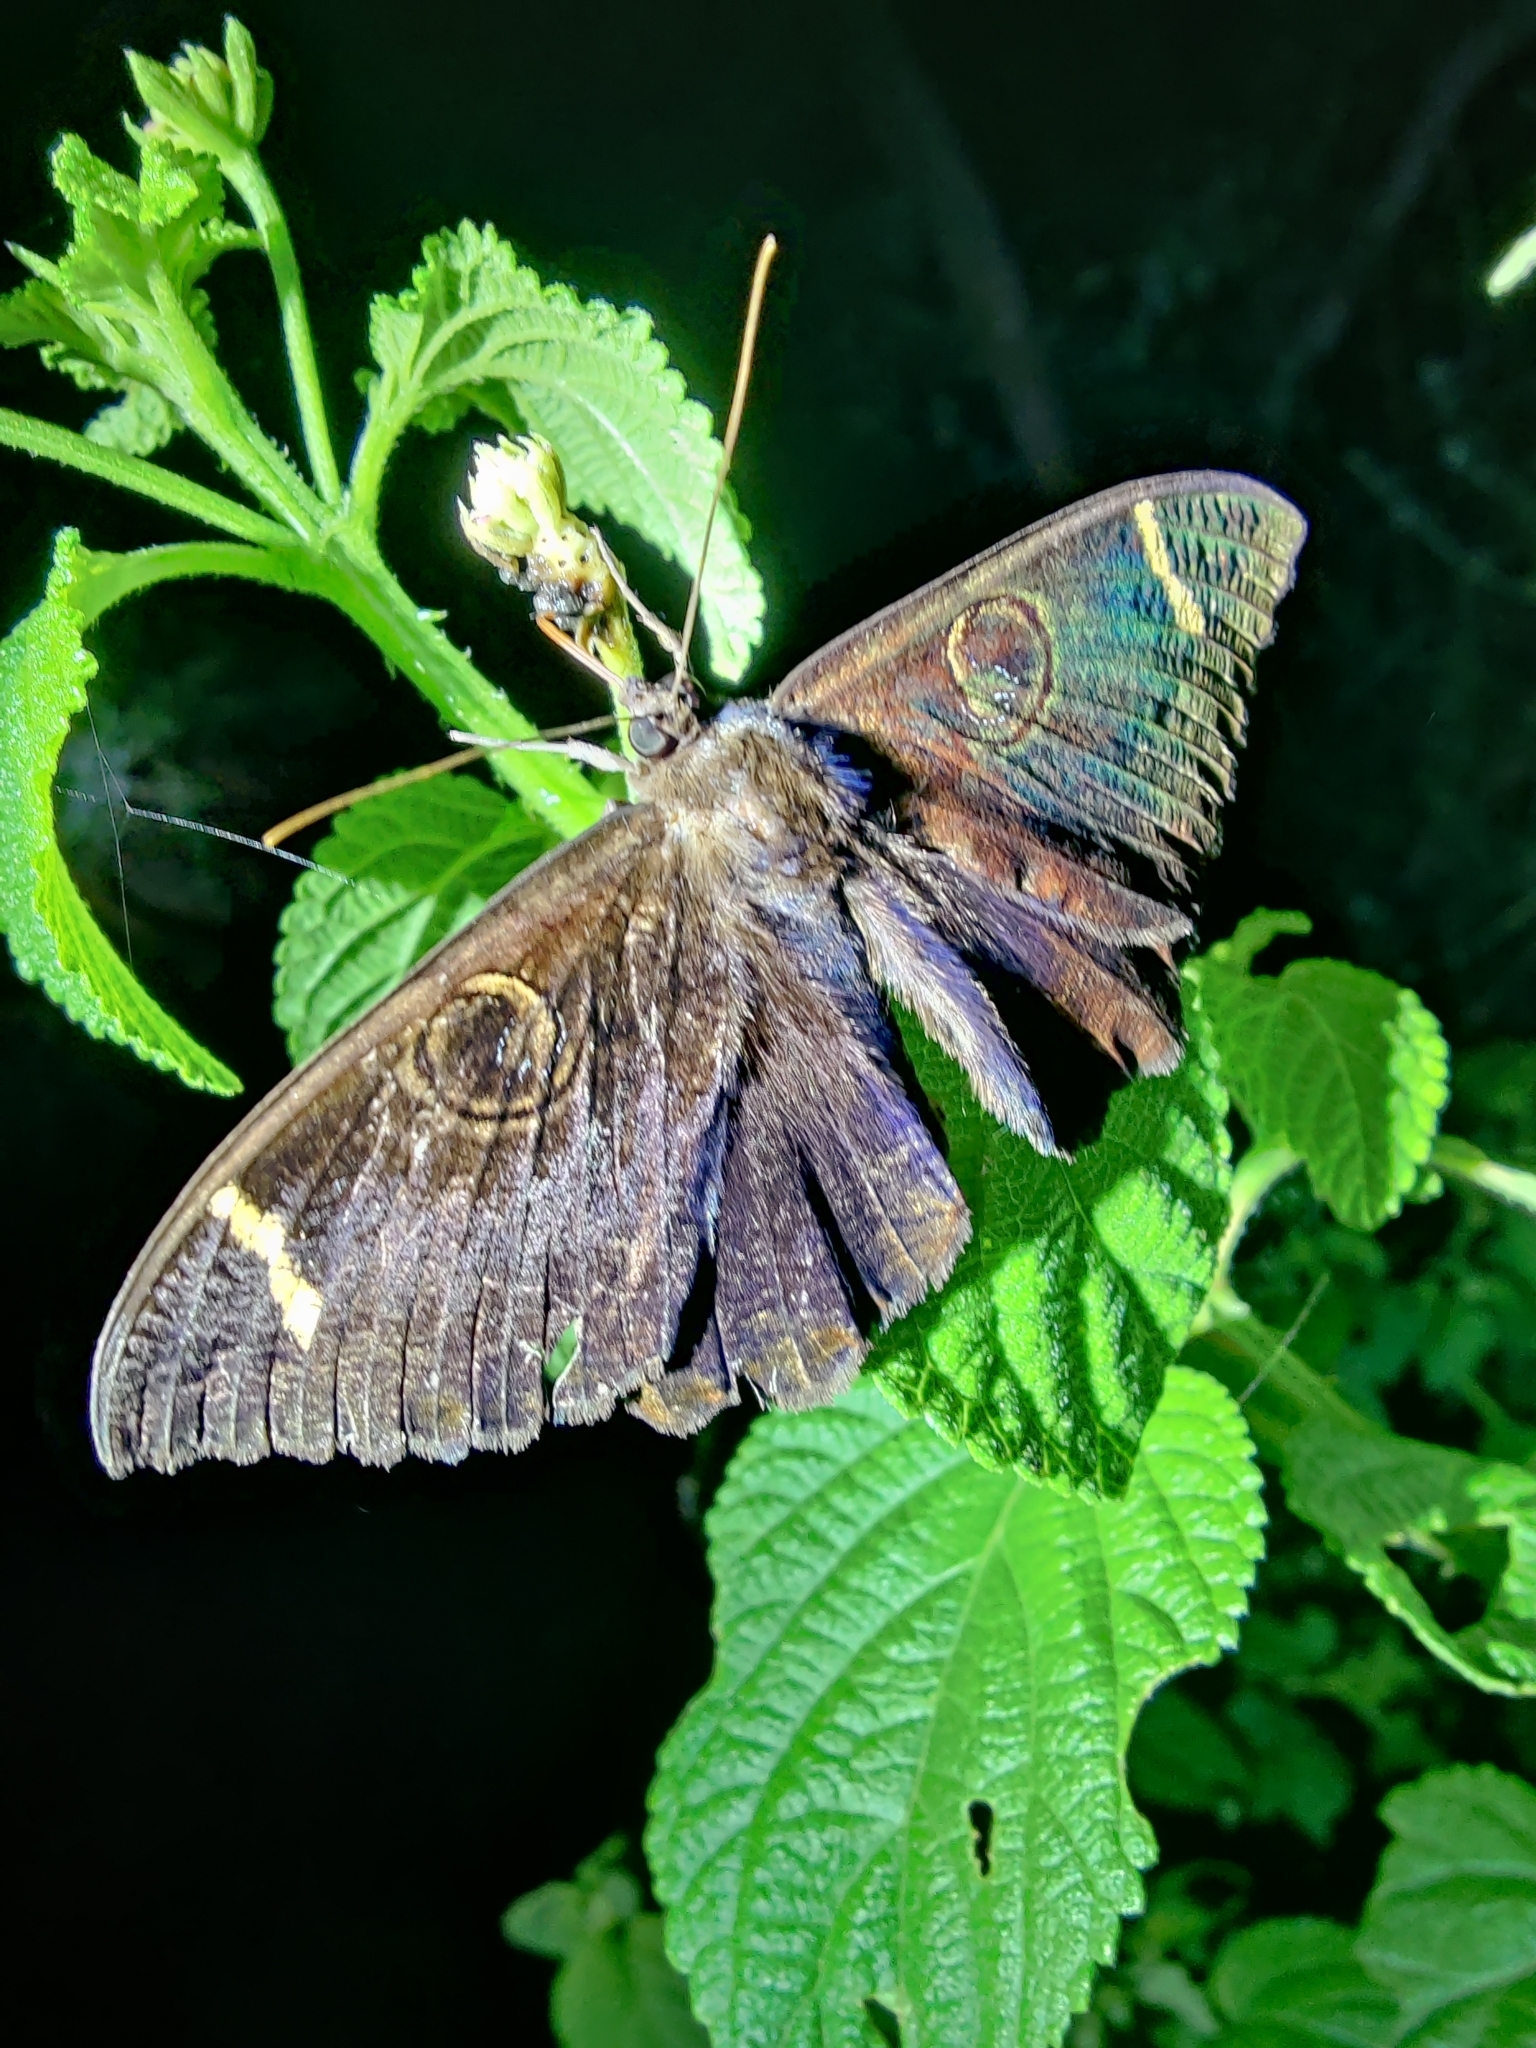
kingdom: Animalia
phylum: Arthropoda
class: Insecta
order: Lepidoptera
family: Erebidae
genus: Erebus
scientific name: Erebus hieroglyphica
